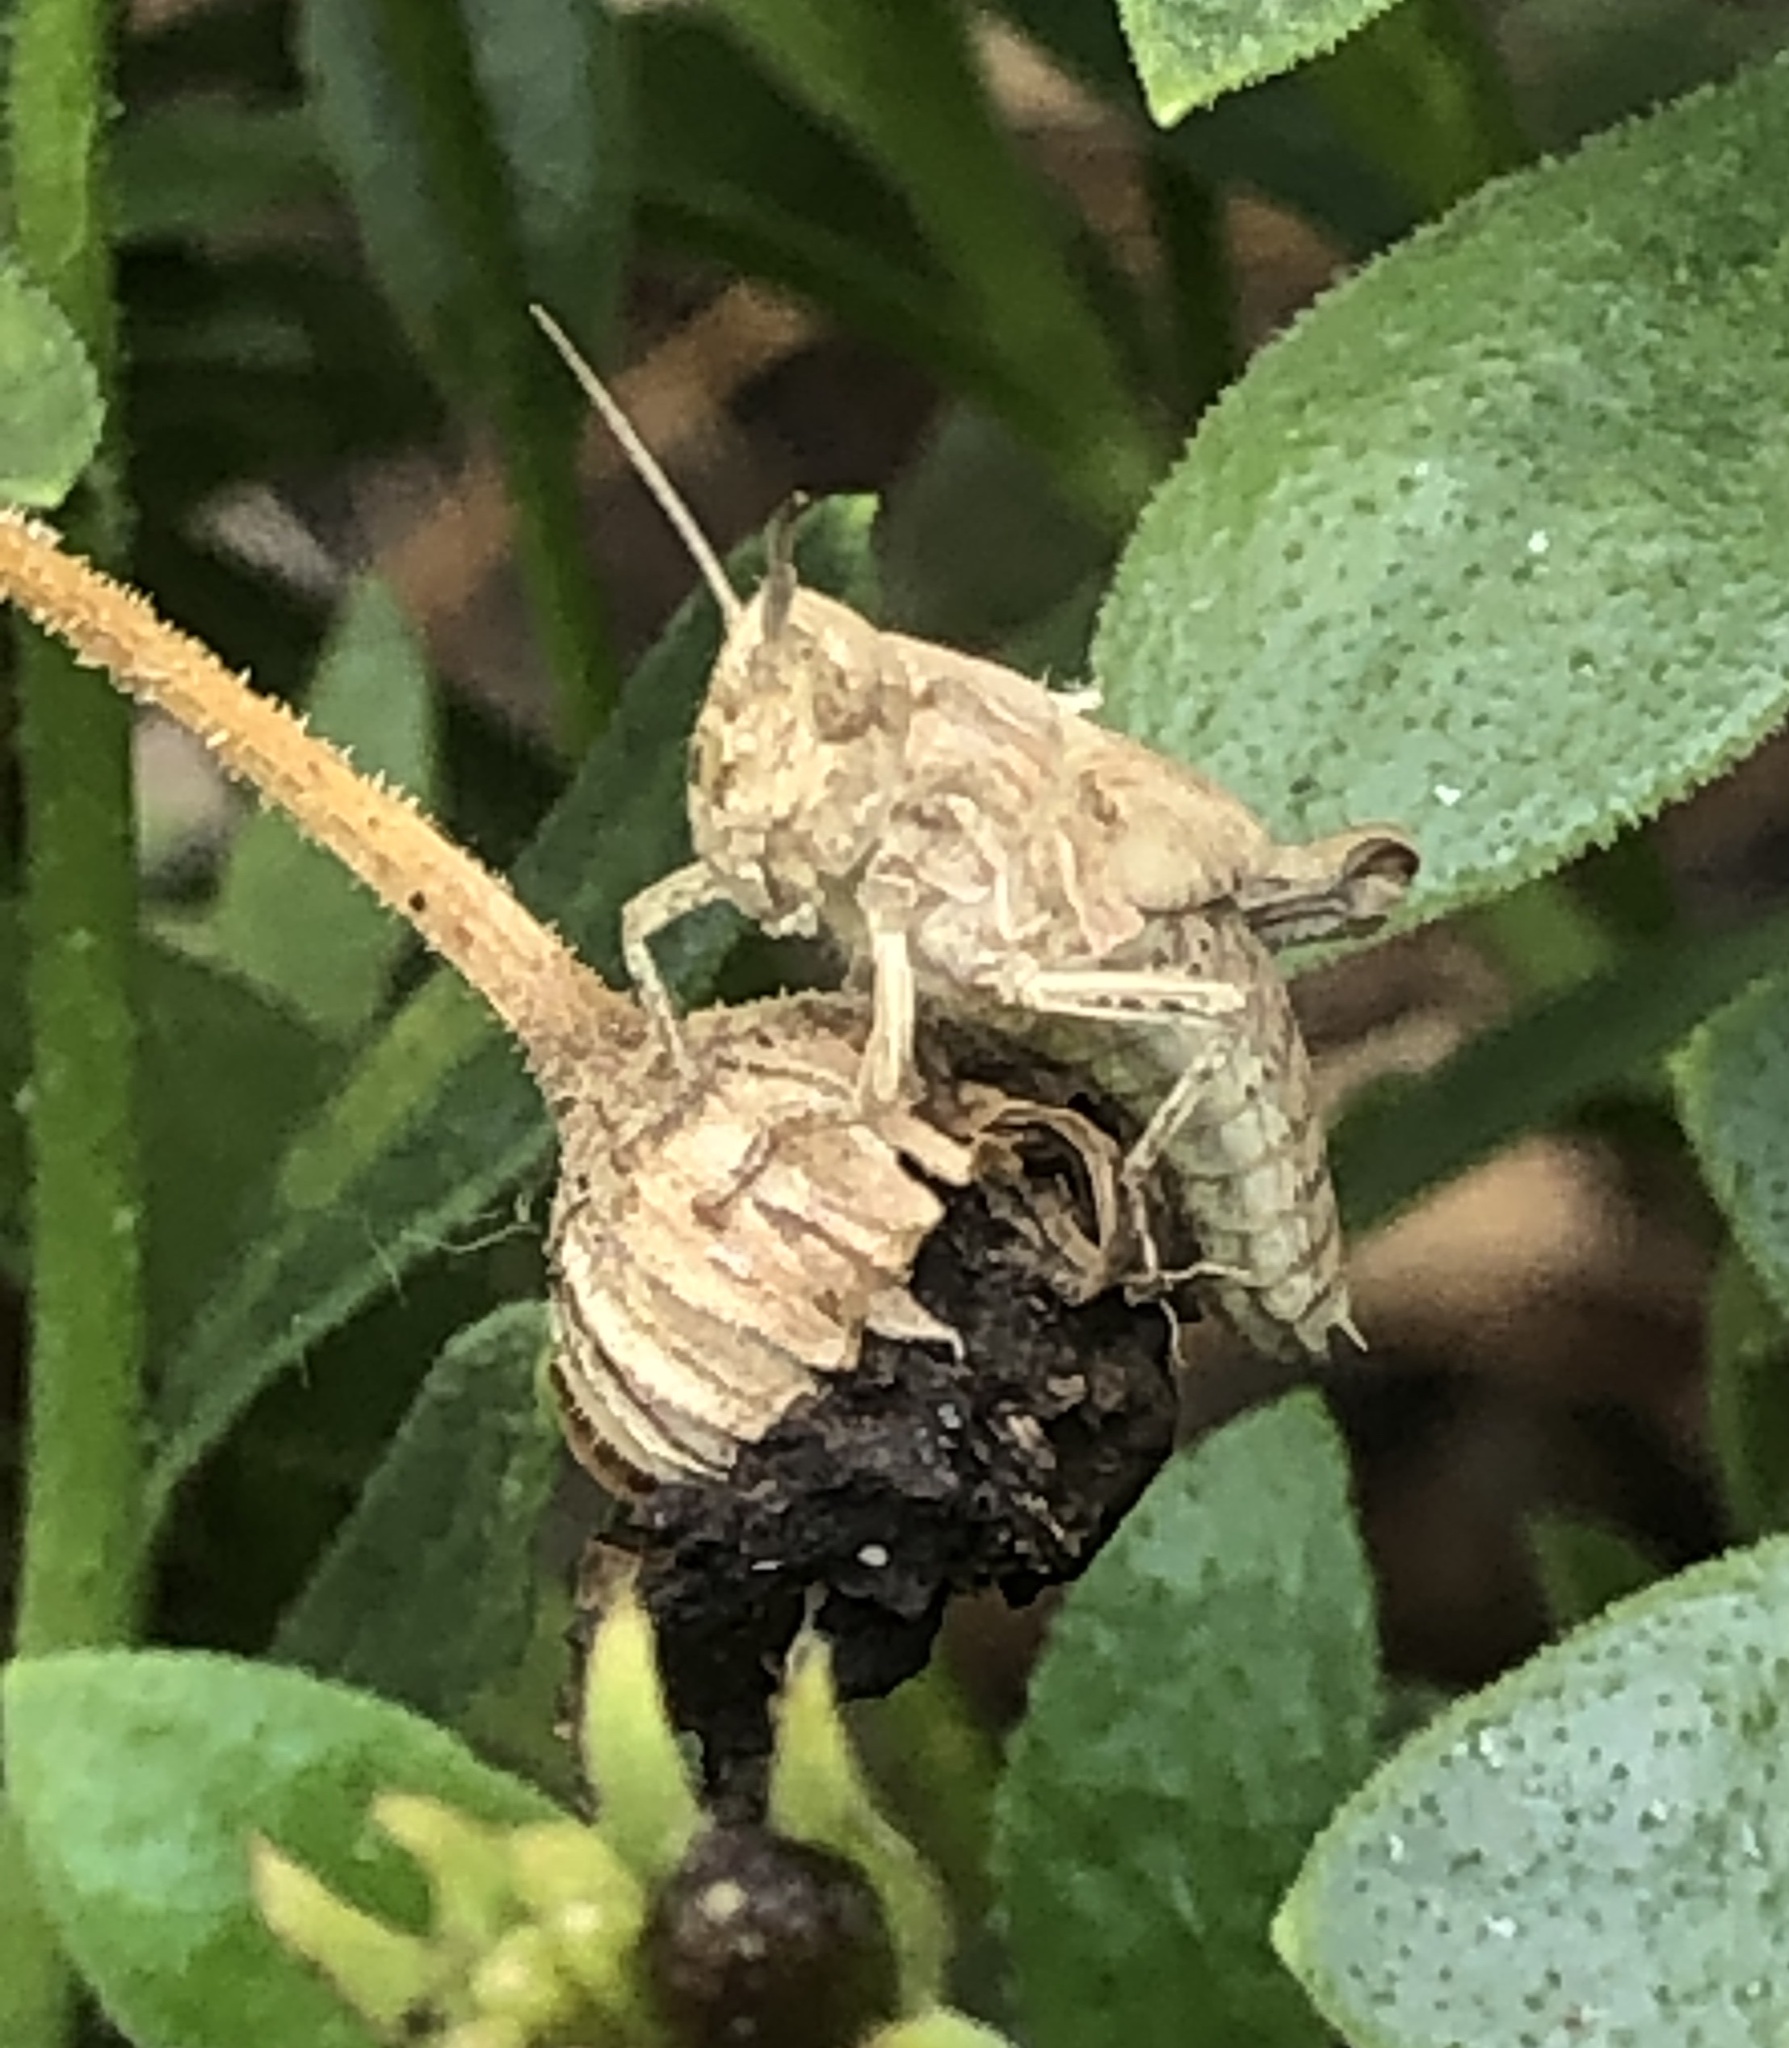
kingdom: Animalia
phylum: Arthropoda
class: Insecta
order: Orthoptera
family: Acrididae
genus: Chorthippus
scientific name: Chorthippus brunneus
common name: Field grasshopper
